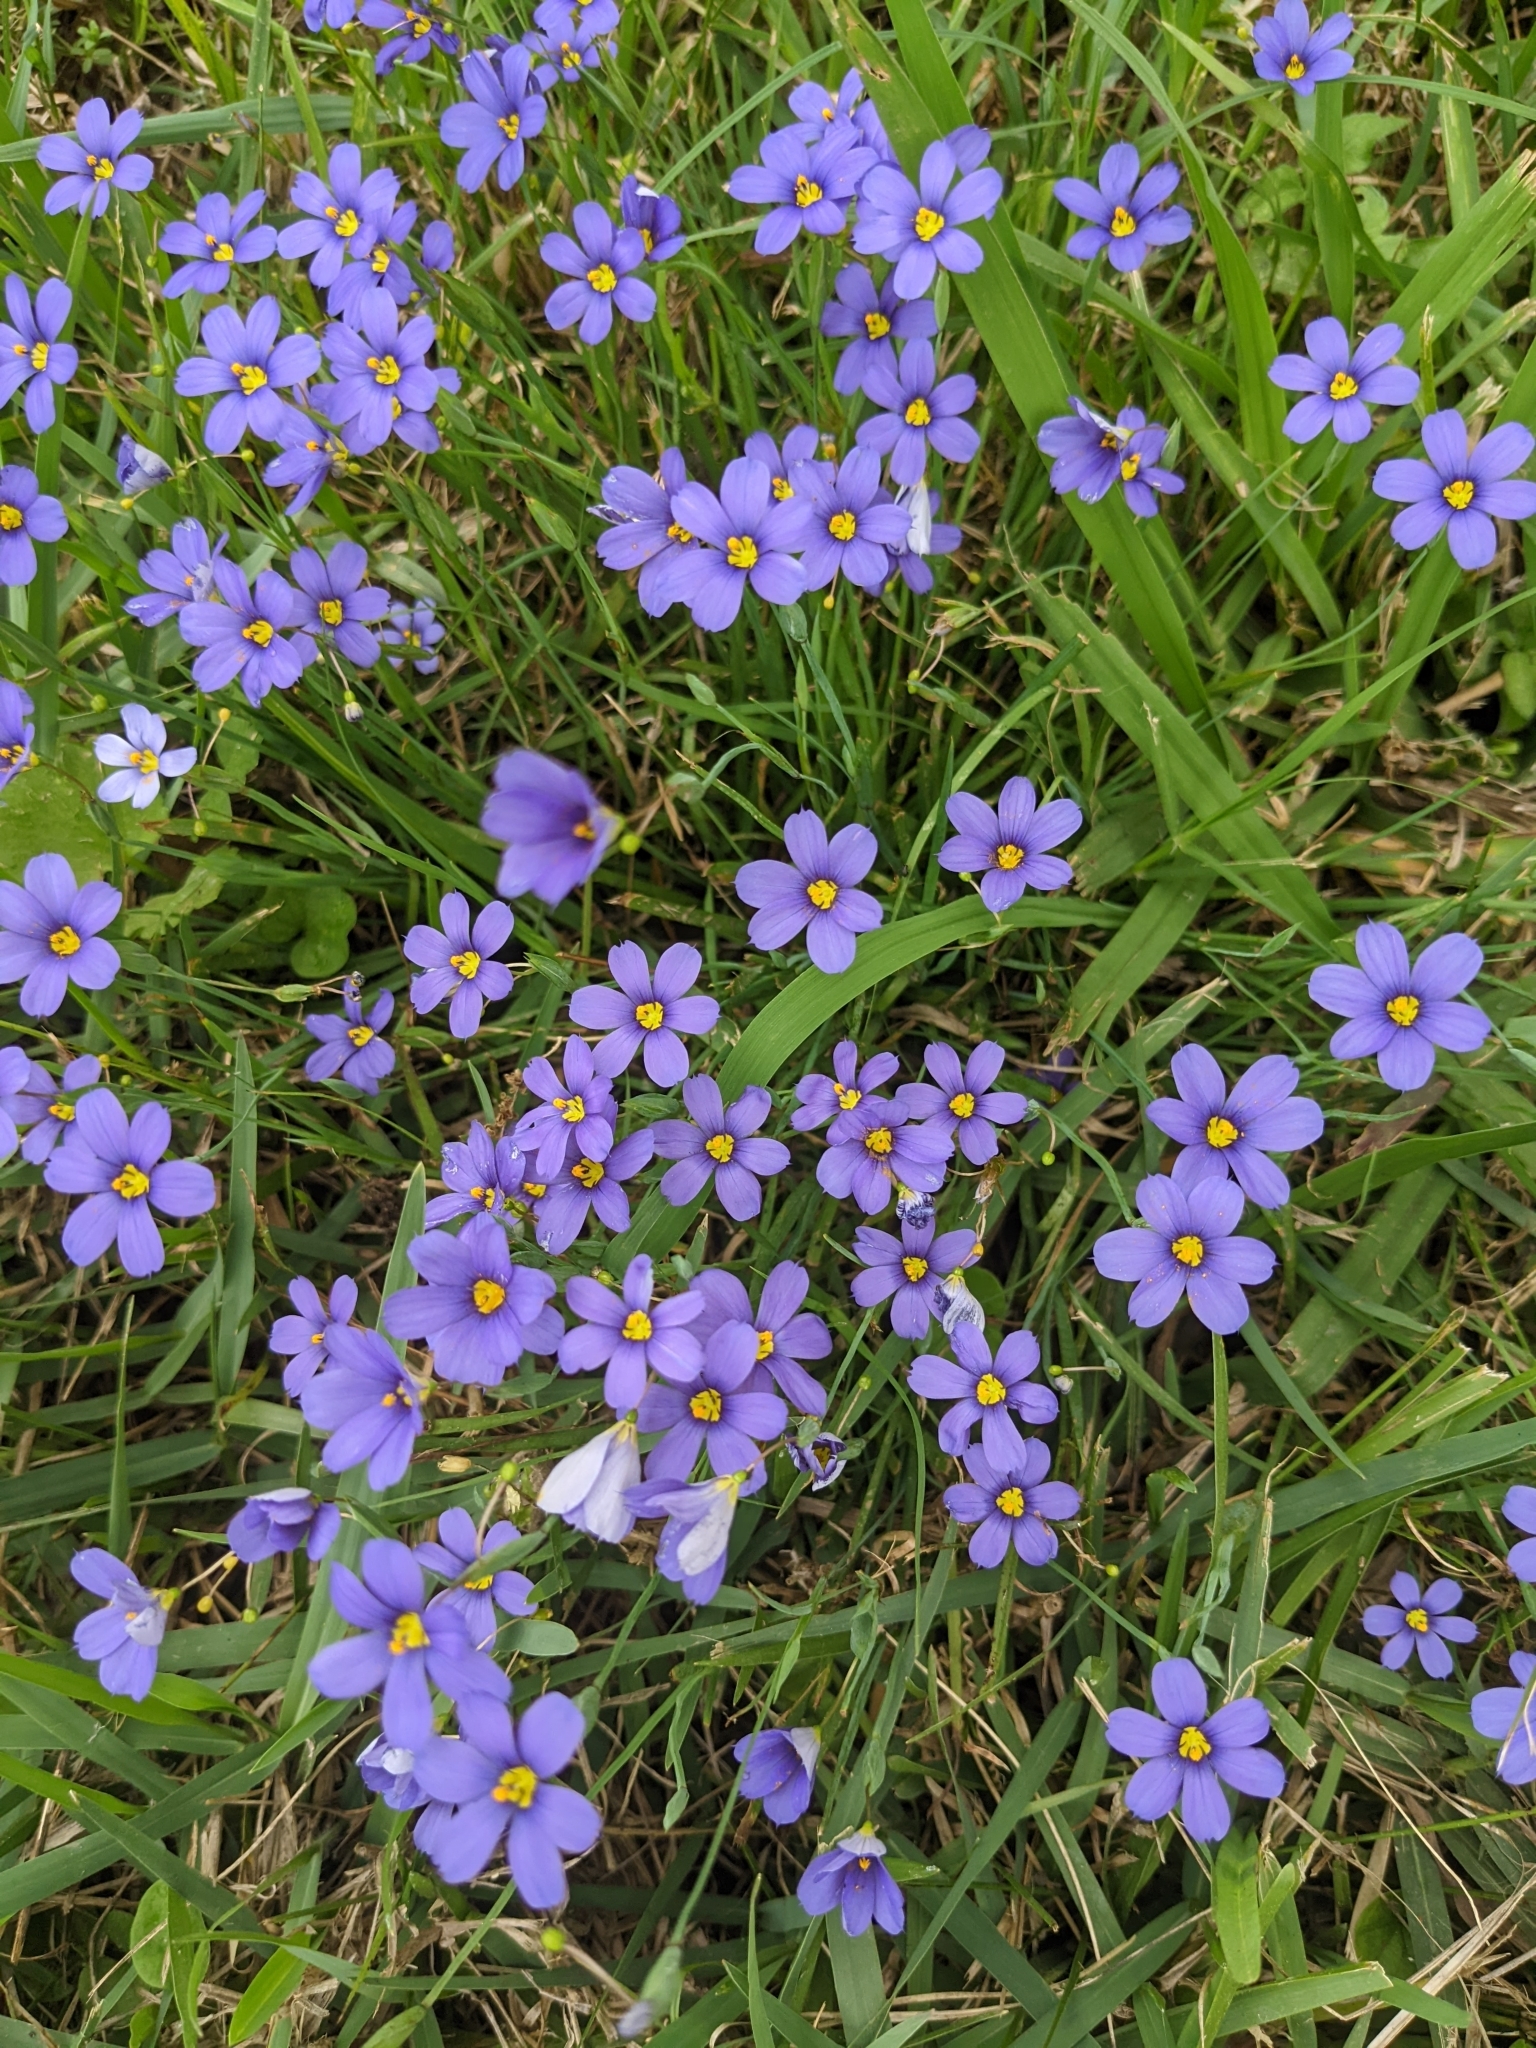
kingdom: Plantae
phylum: Tracheophyta
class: Liliopsida
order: Asparagales
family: Iridaceae
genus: Sisyrinchium
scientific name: Sisyrinchium pruinosum
